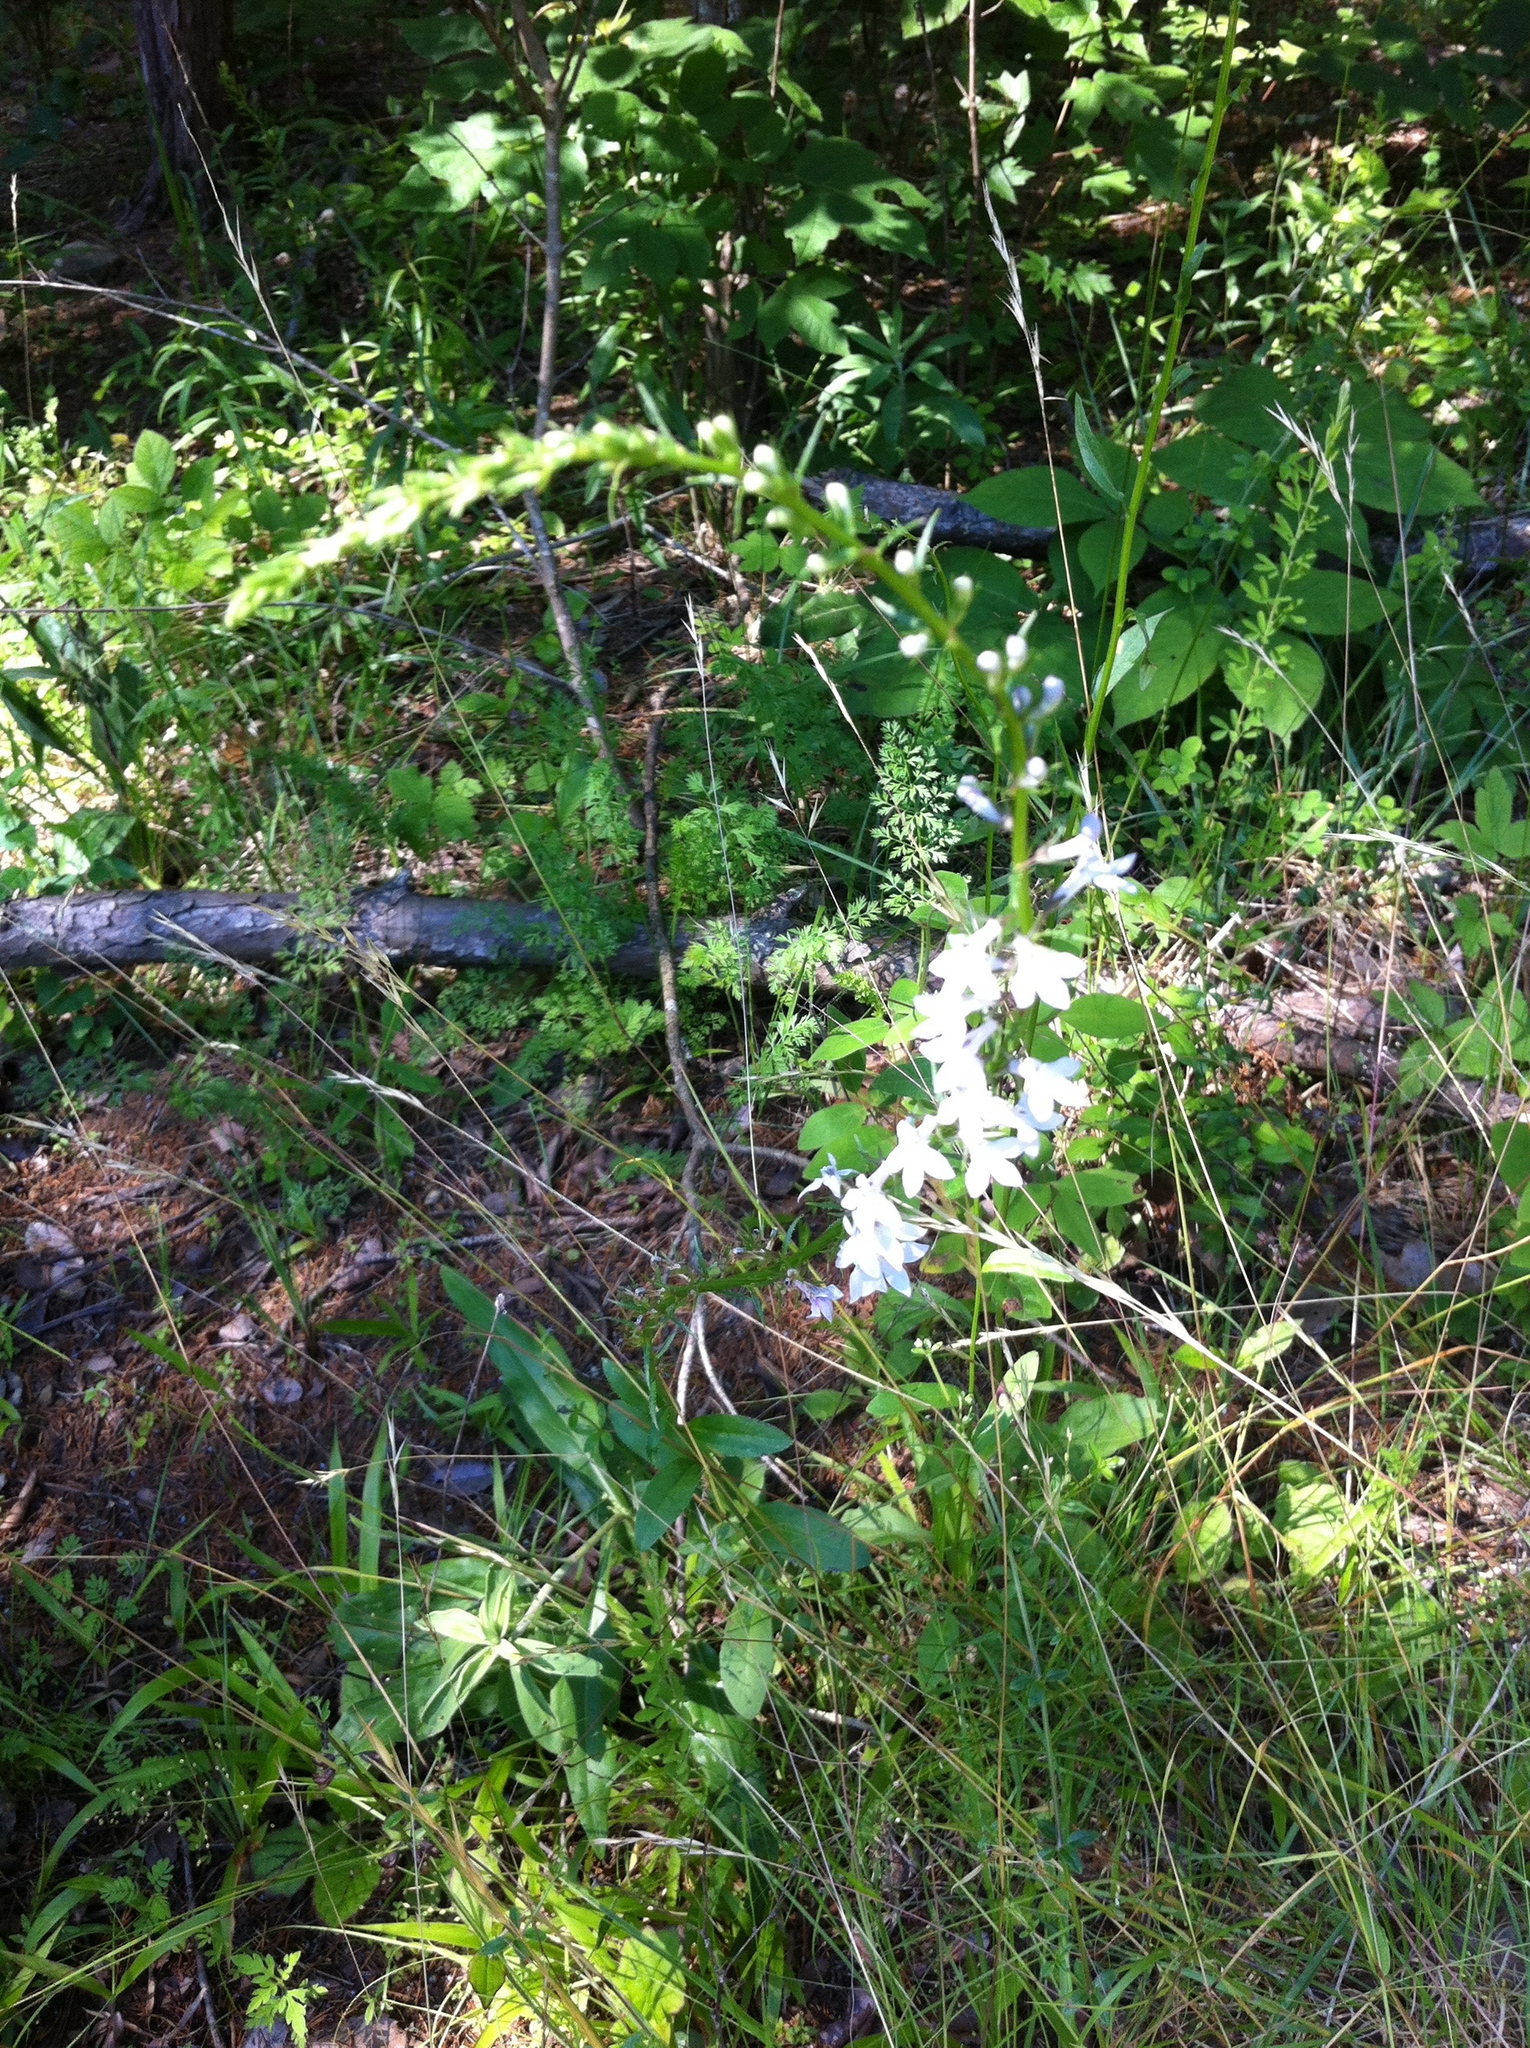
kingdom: Plantae
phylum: Tracheophyta
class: Magnoliopsida
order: Asterales
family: Campanulaceae
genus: Lobelia
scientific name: Lobelia spicata
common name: Pale-spike lobelia
